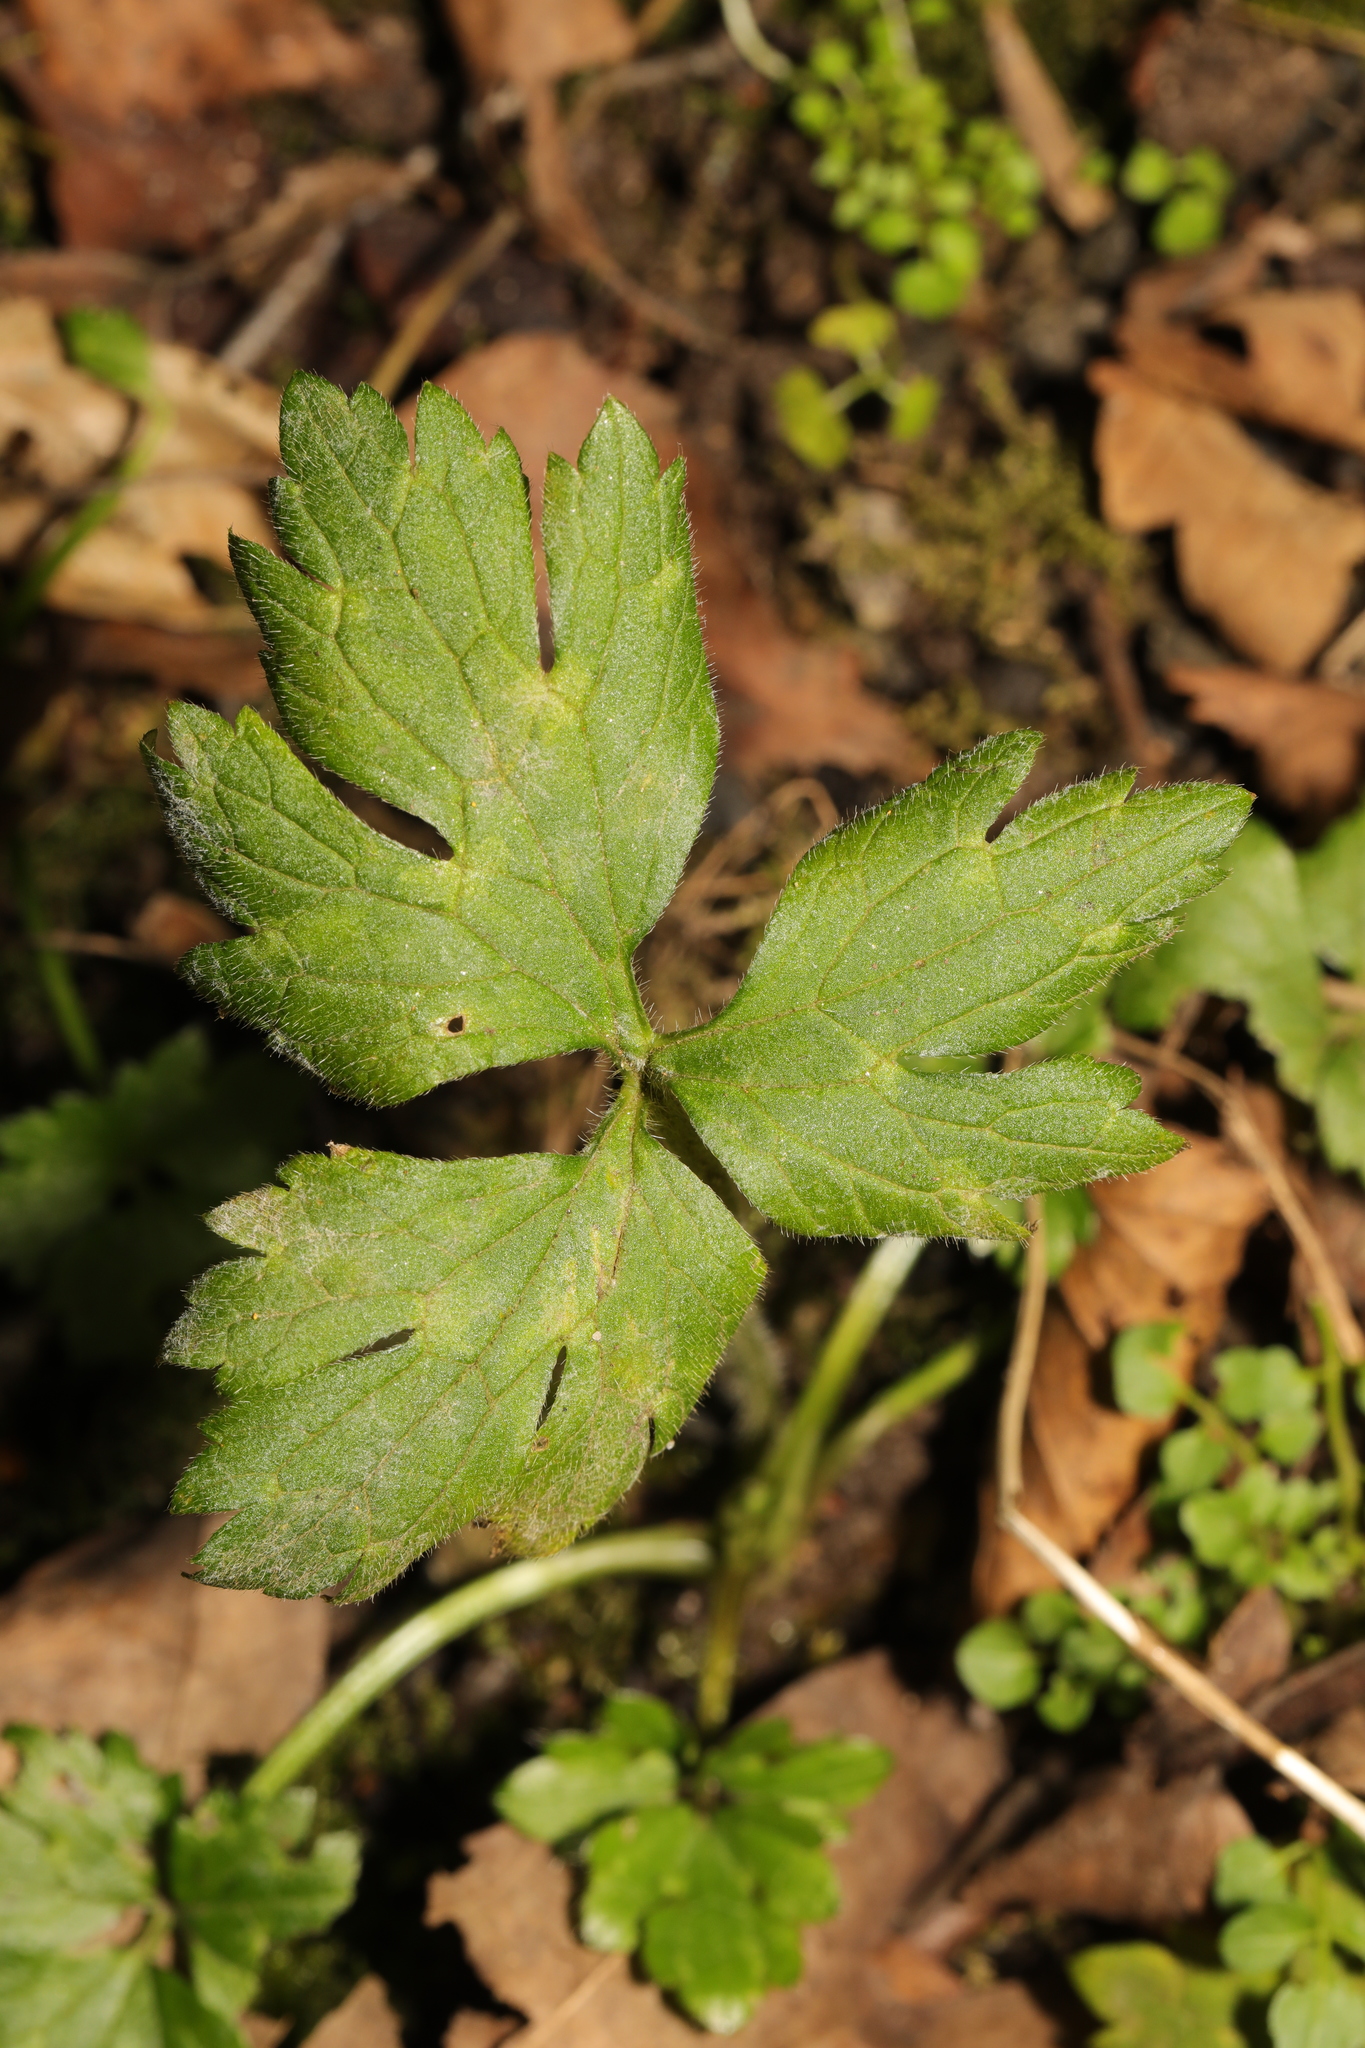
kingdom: Plantae
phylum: Tracheophyta
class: Magnoliopsida
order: Ranunculales
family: Ranunculaceae
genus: Ranunculus
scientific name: Ranunculus repens
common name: Creeping buttercup
